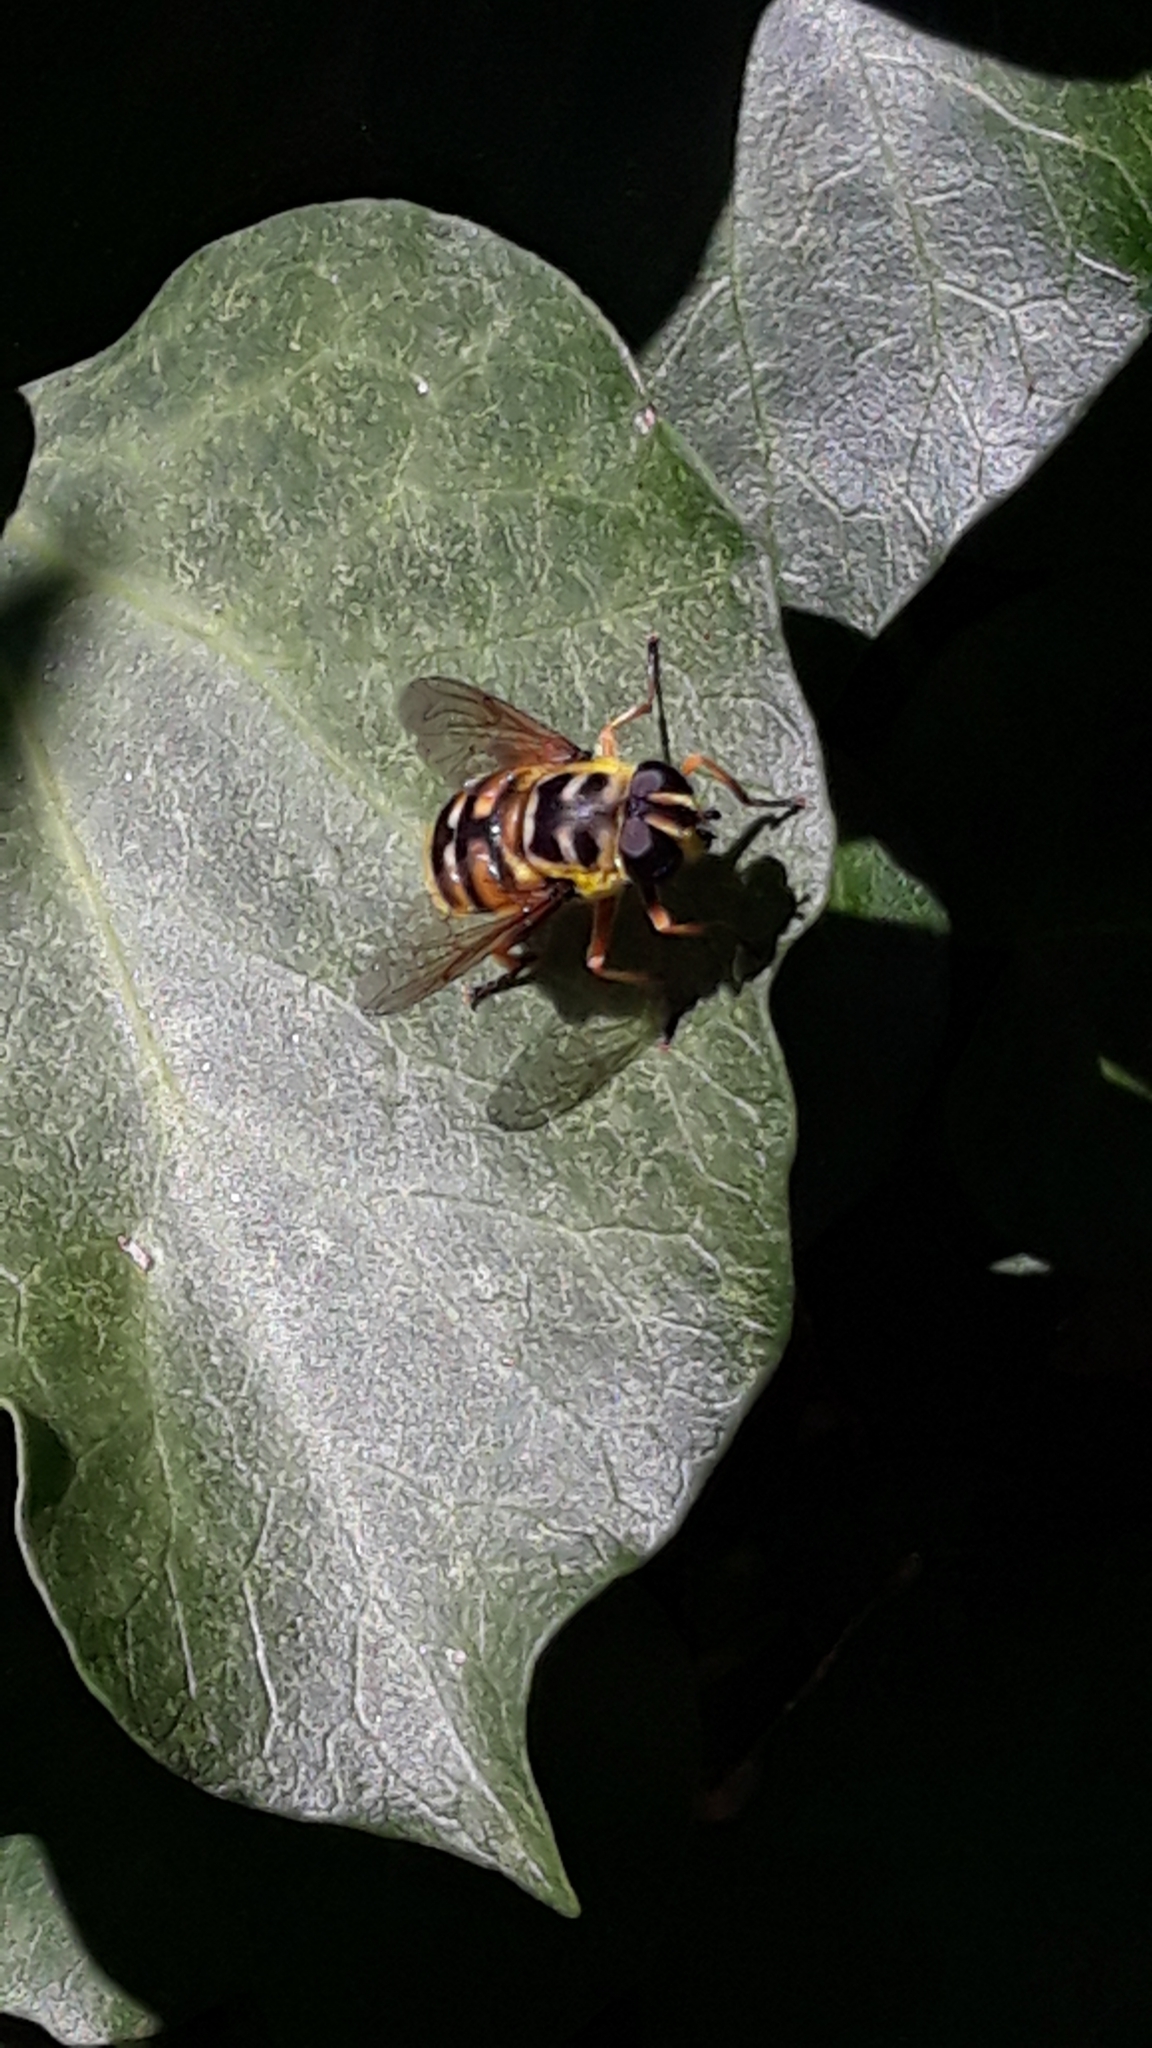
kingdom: Animalia
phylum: Arthropoda
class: Insecta
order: Diptera
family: Syrphidae
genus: Myathropa
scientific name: Myathropa florea
